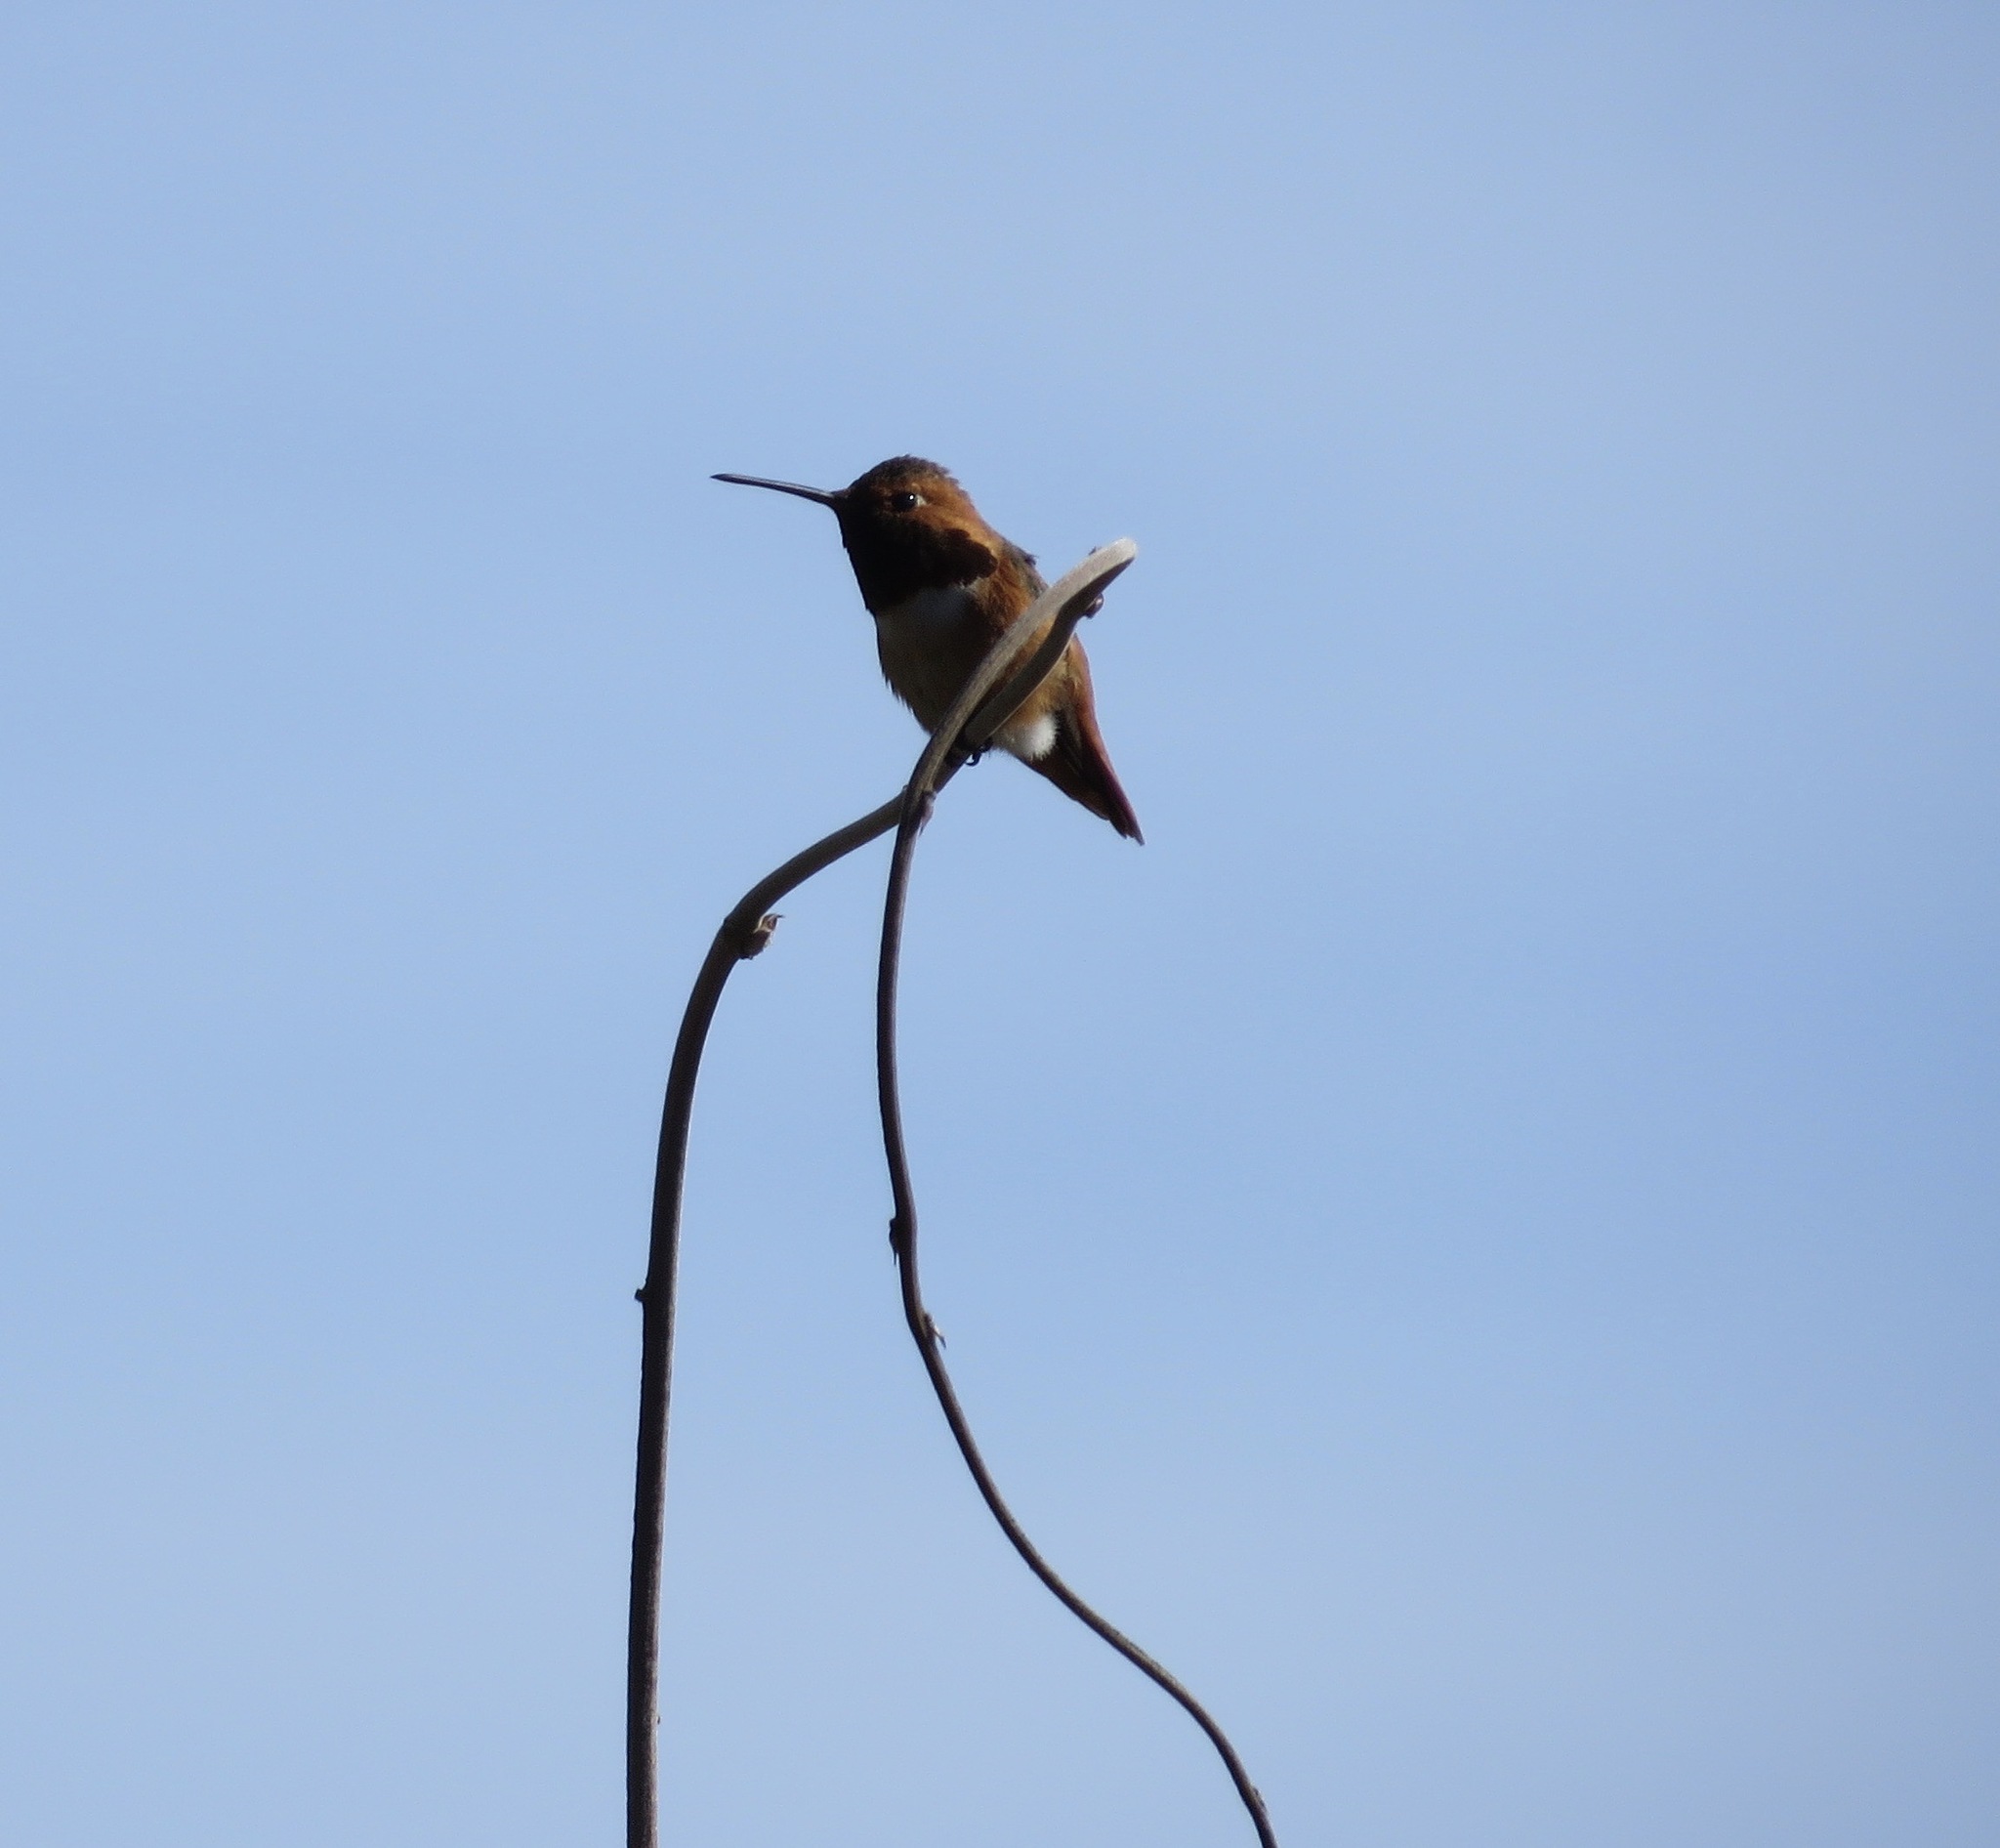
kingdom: Animalia
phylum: Chordata
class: Aves
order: Apodiformes
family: Trochilidae
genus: Selasphorus
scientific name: Selasphorus sasin
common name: Allen's hummingbird
